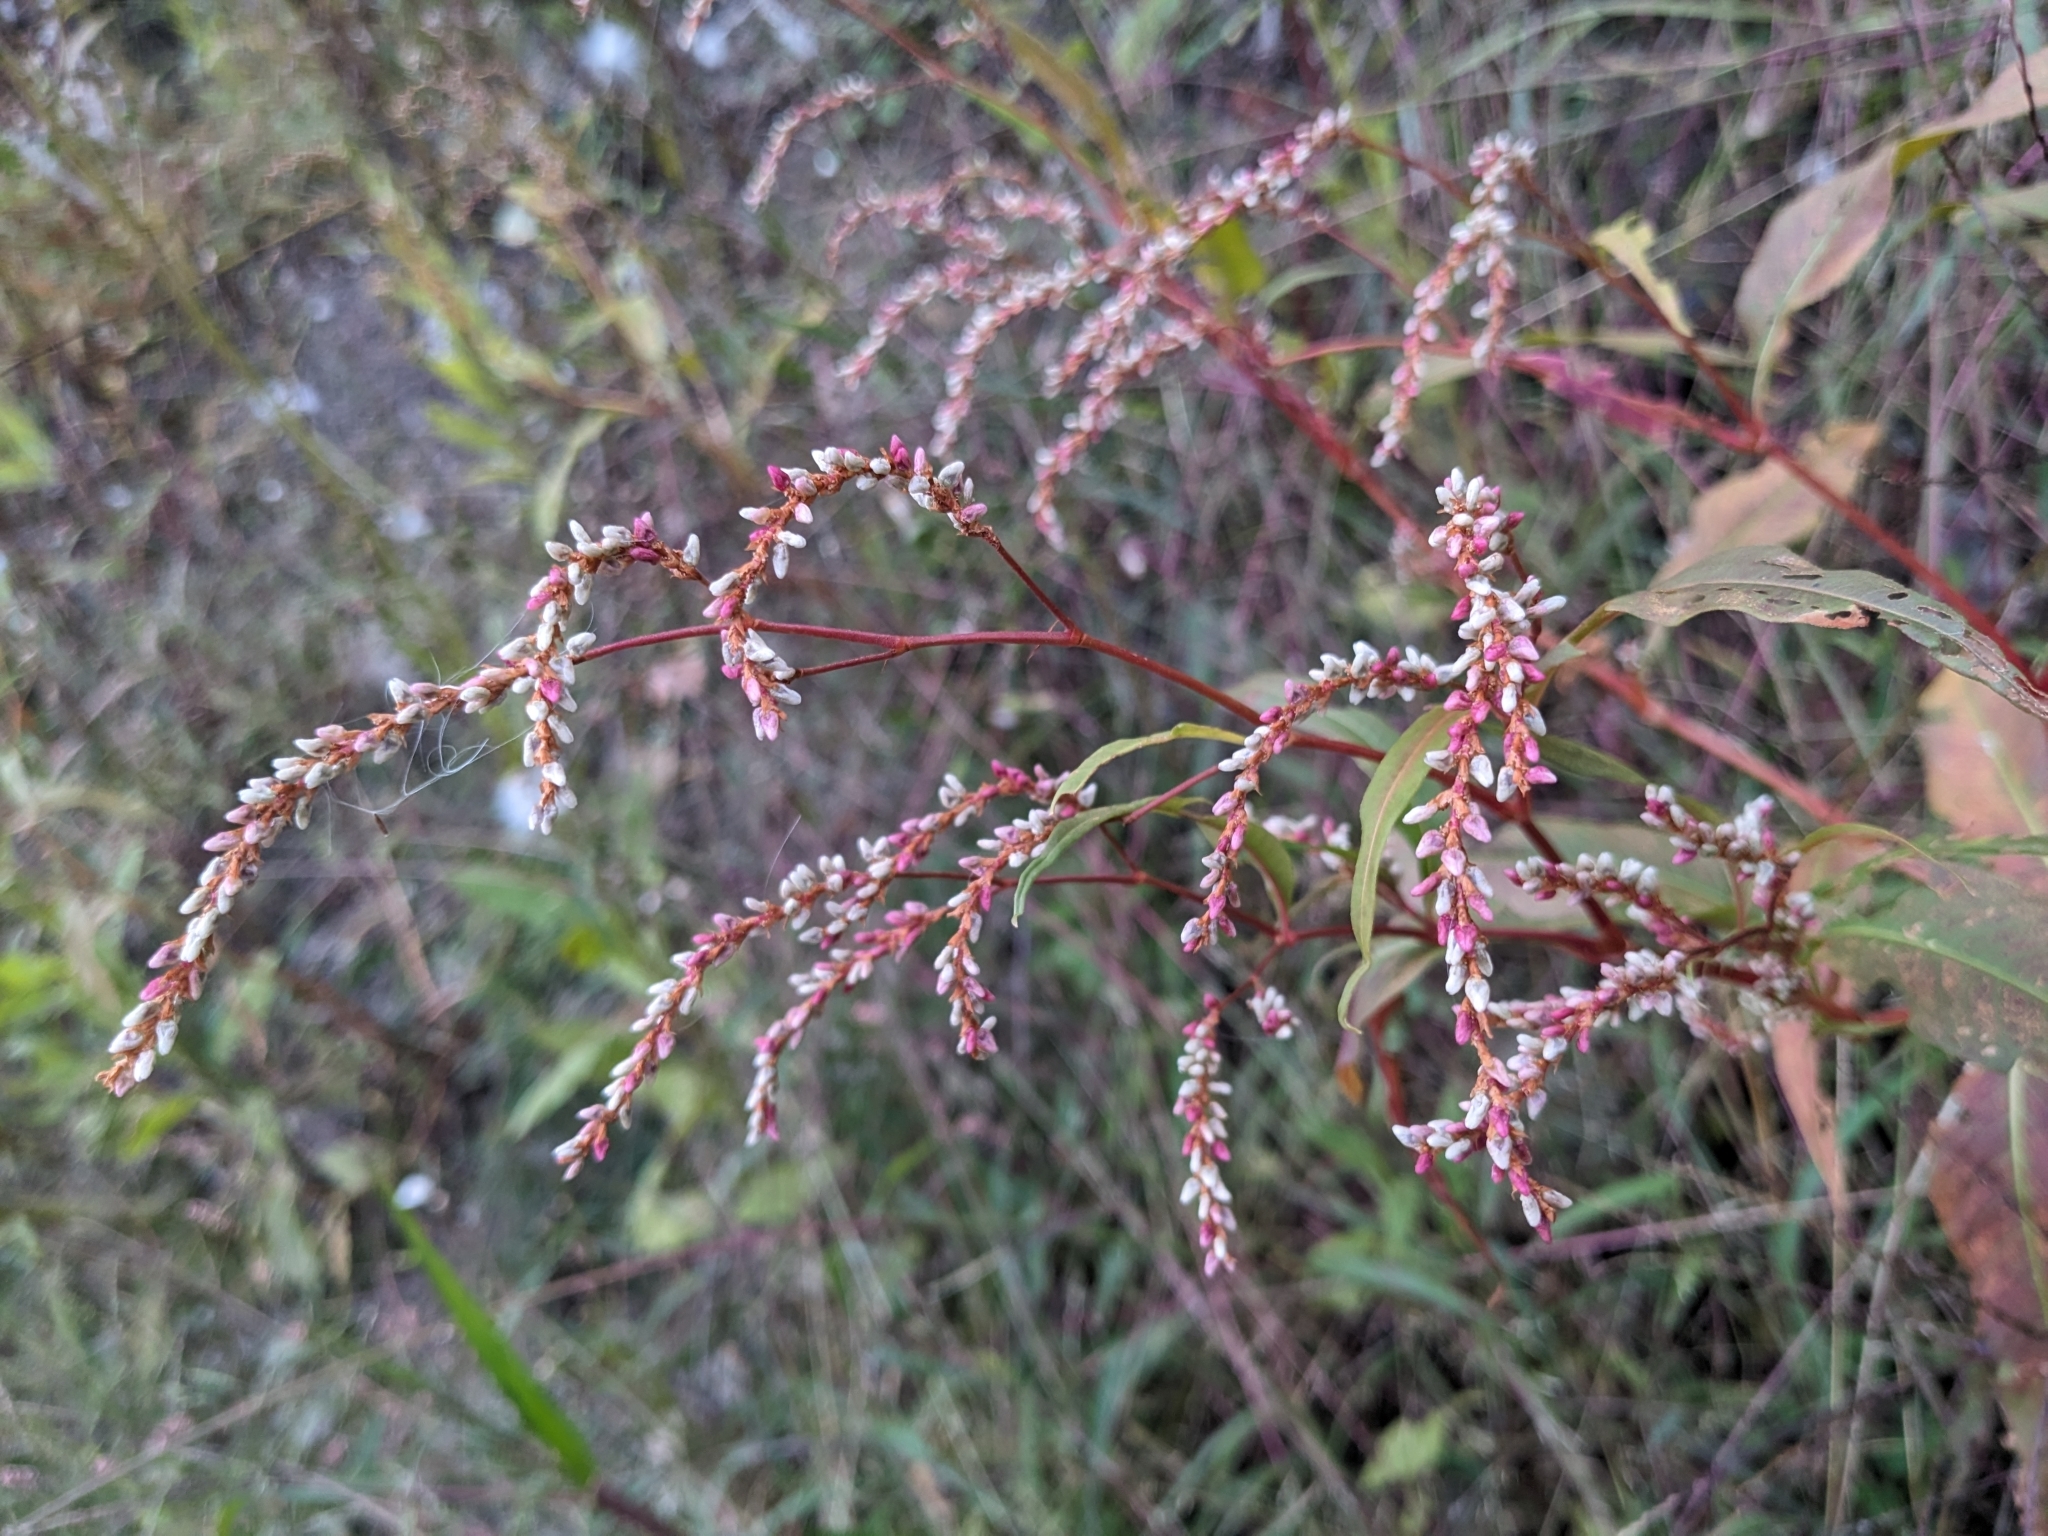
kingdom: Plantae
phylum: Tracheophyta
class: Magnoliopsida
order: Caryophyllales
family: Polygonaceae
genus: Persicaria
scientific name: Persicaria lapathifolia
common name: Curlytop knotweed
